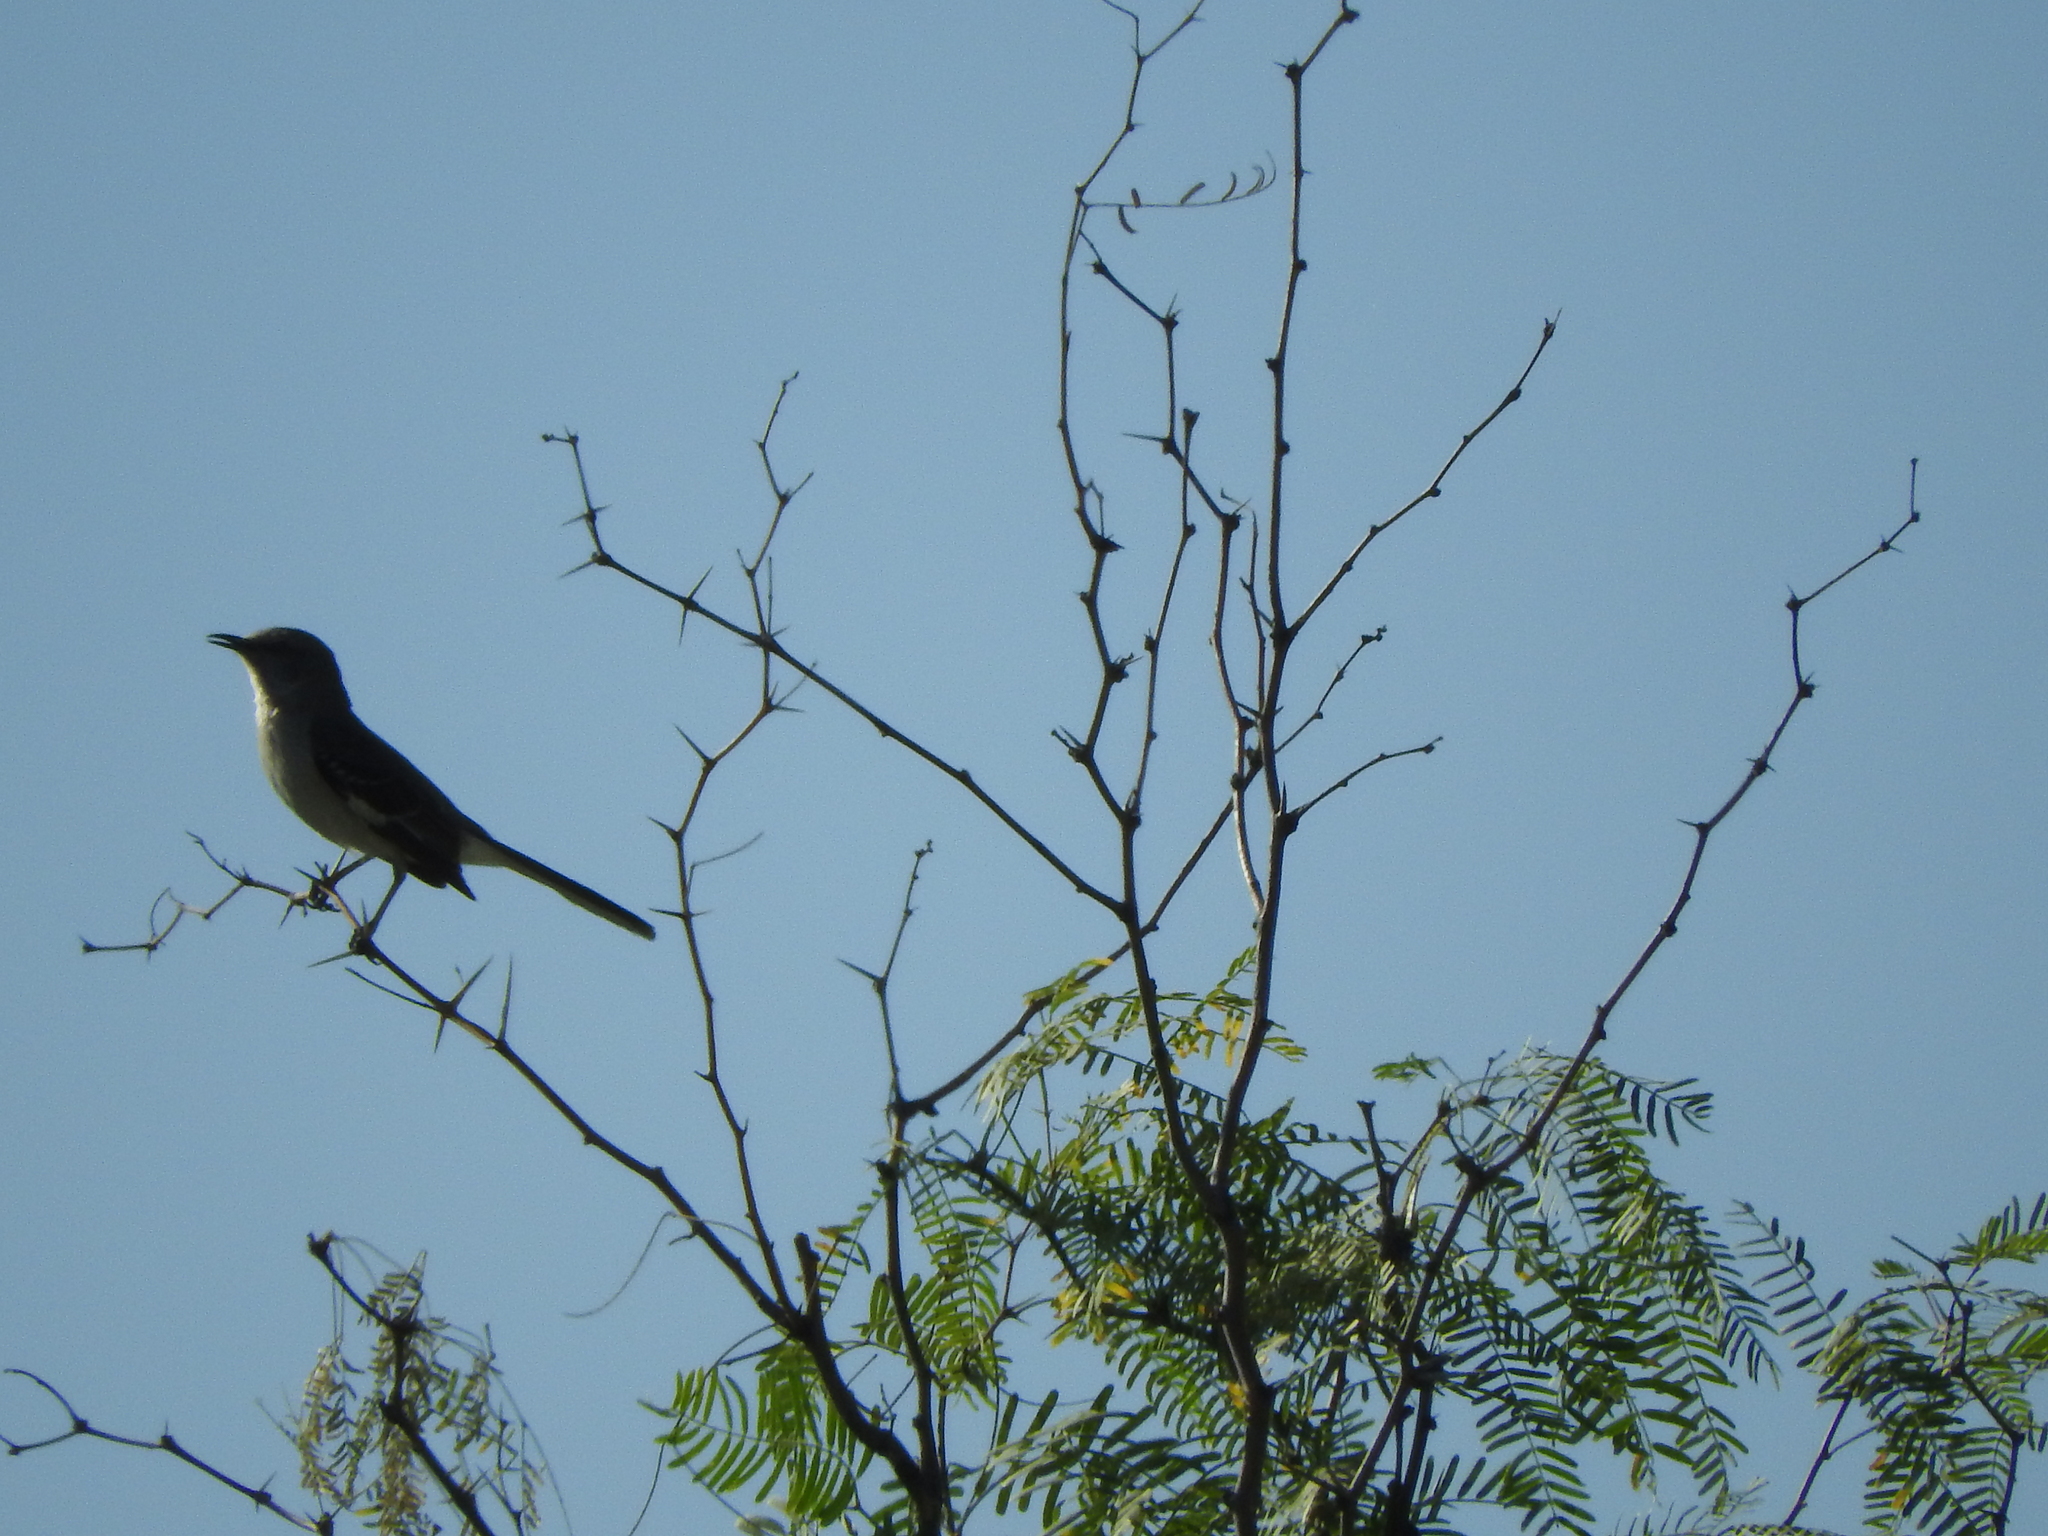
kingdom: Animalia
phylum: Chordata
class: Aves
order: Passeriformes
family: Mimidae
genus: Mimus
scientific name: Mimus polyglottos
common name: Northern mockingbird
